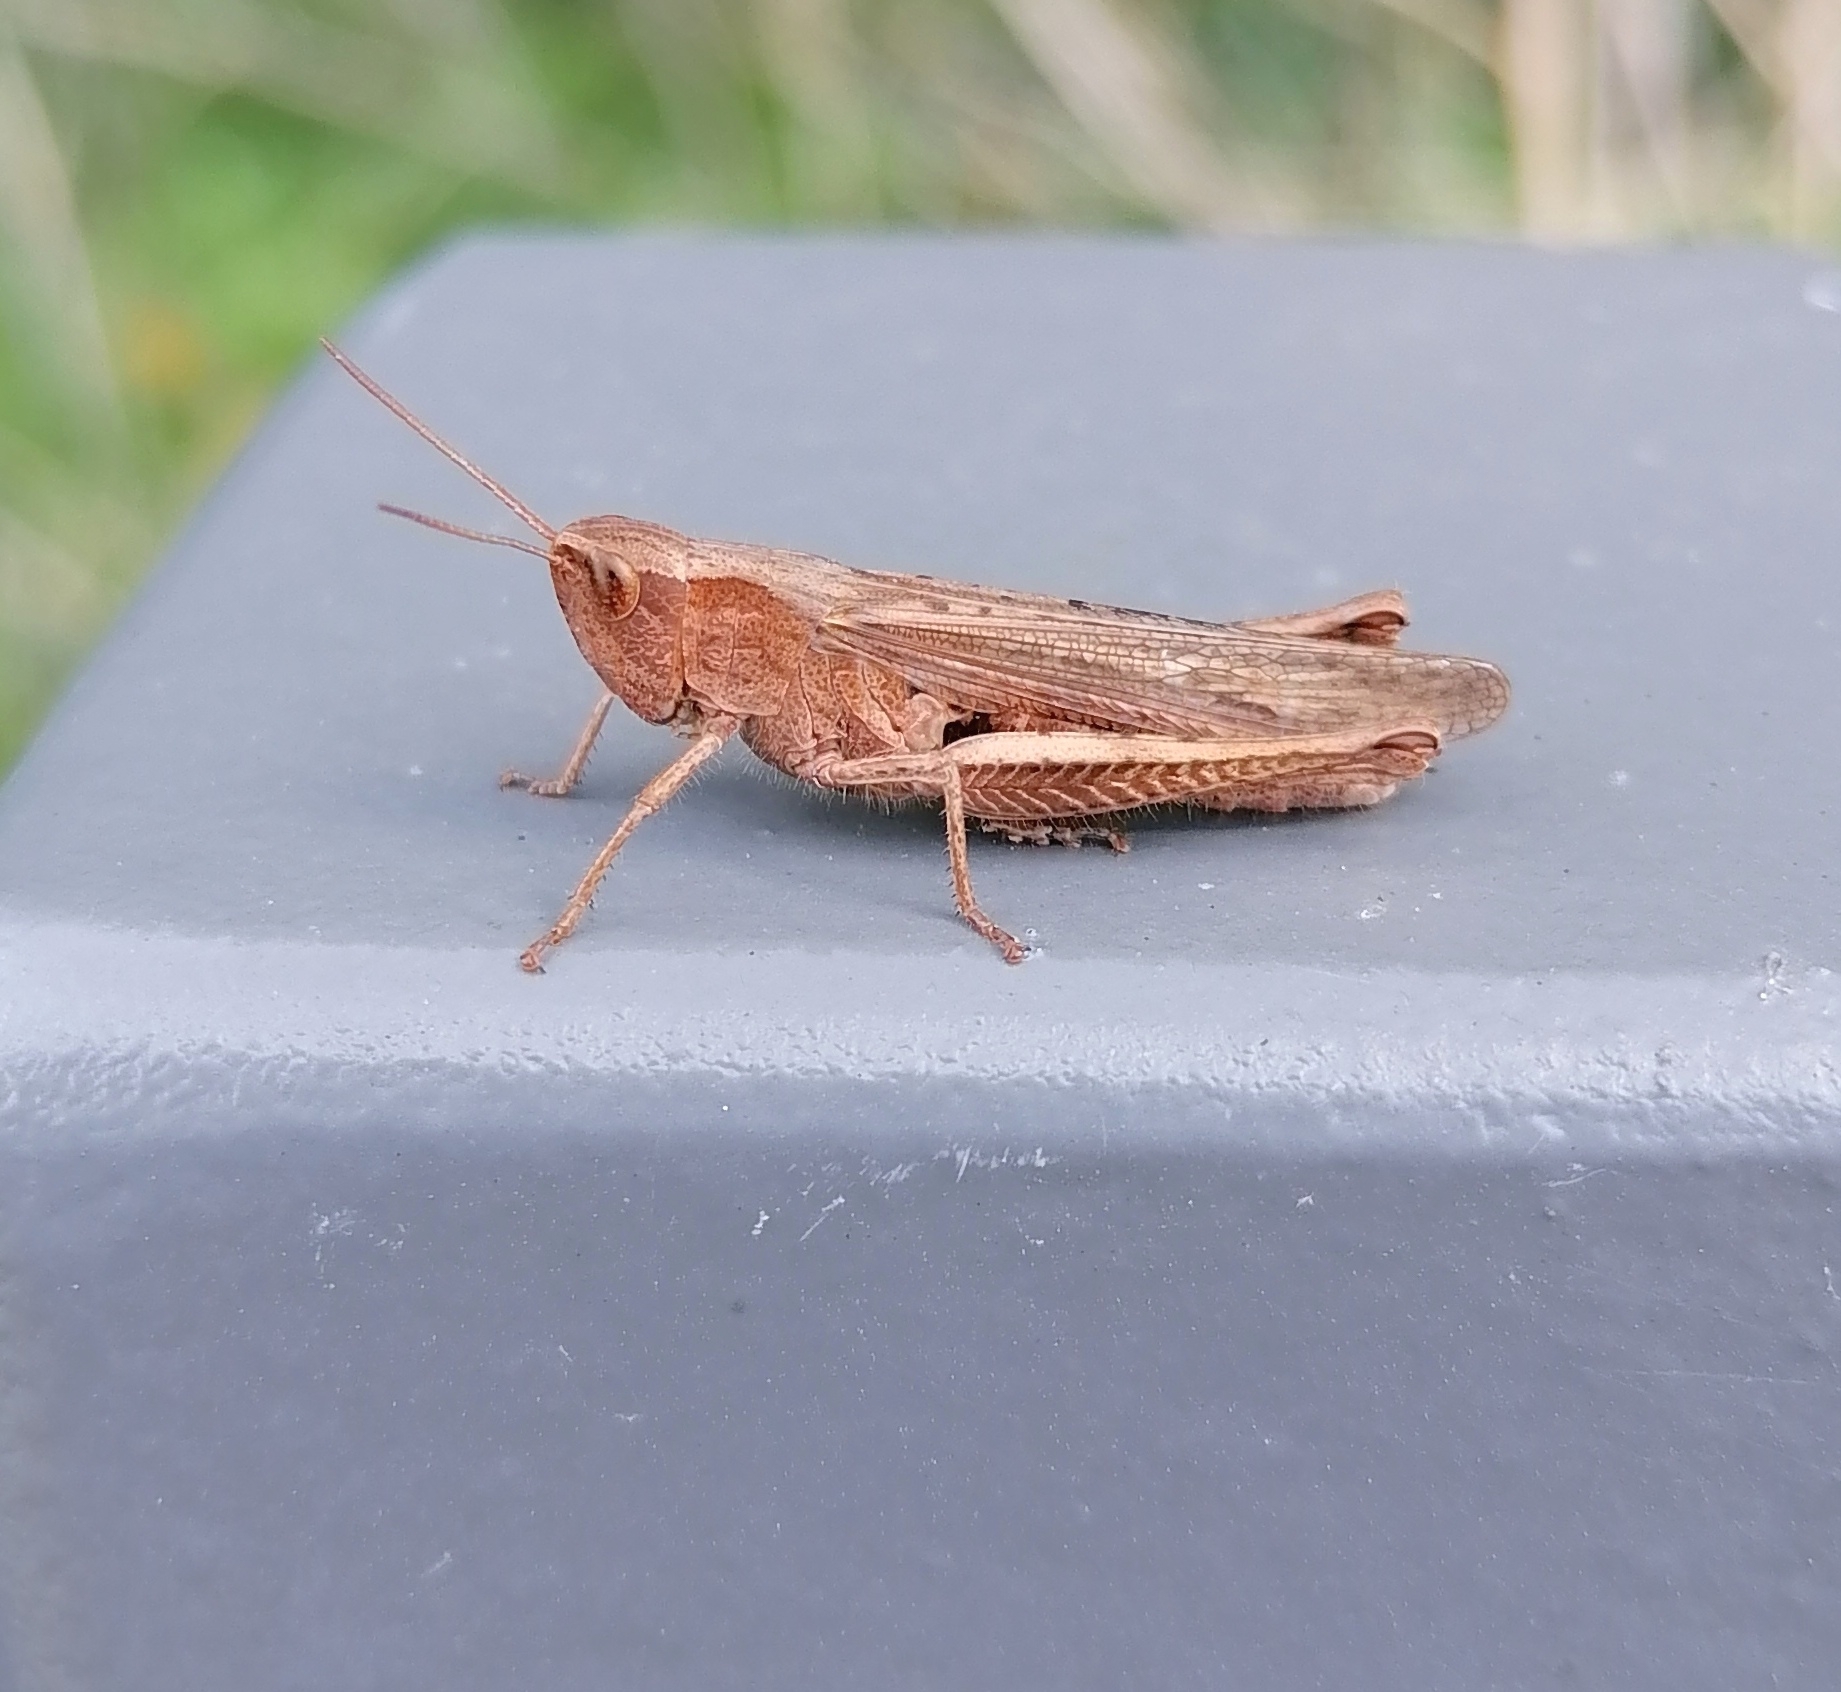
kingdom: Animalia
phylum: Arthropoda
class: Insecta
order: Orthoptera
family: Acrididae
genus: Chorthippus
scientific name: Chorthippus dorsatus
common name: Steppe grasshopper
